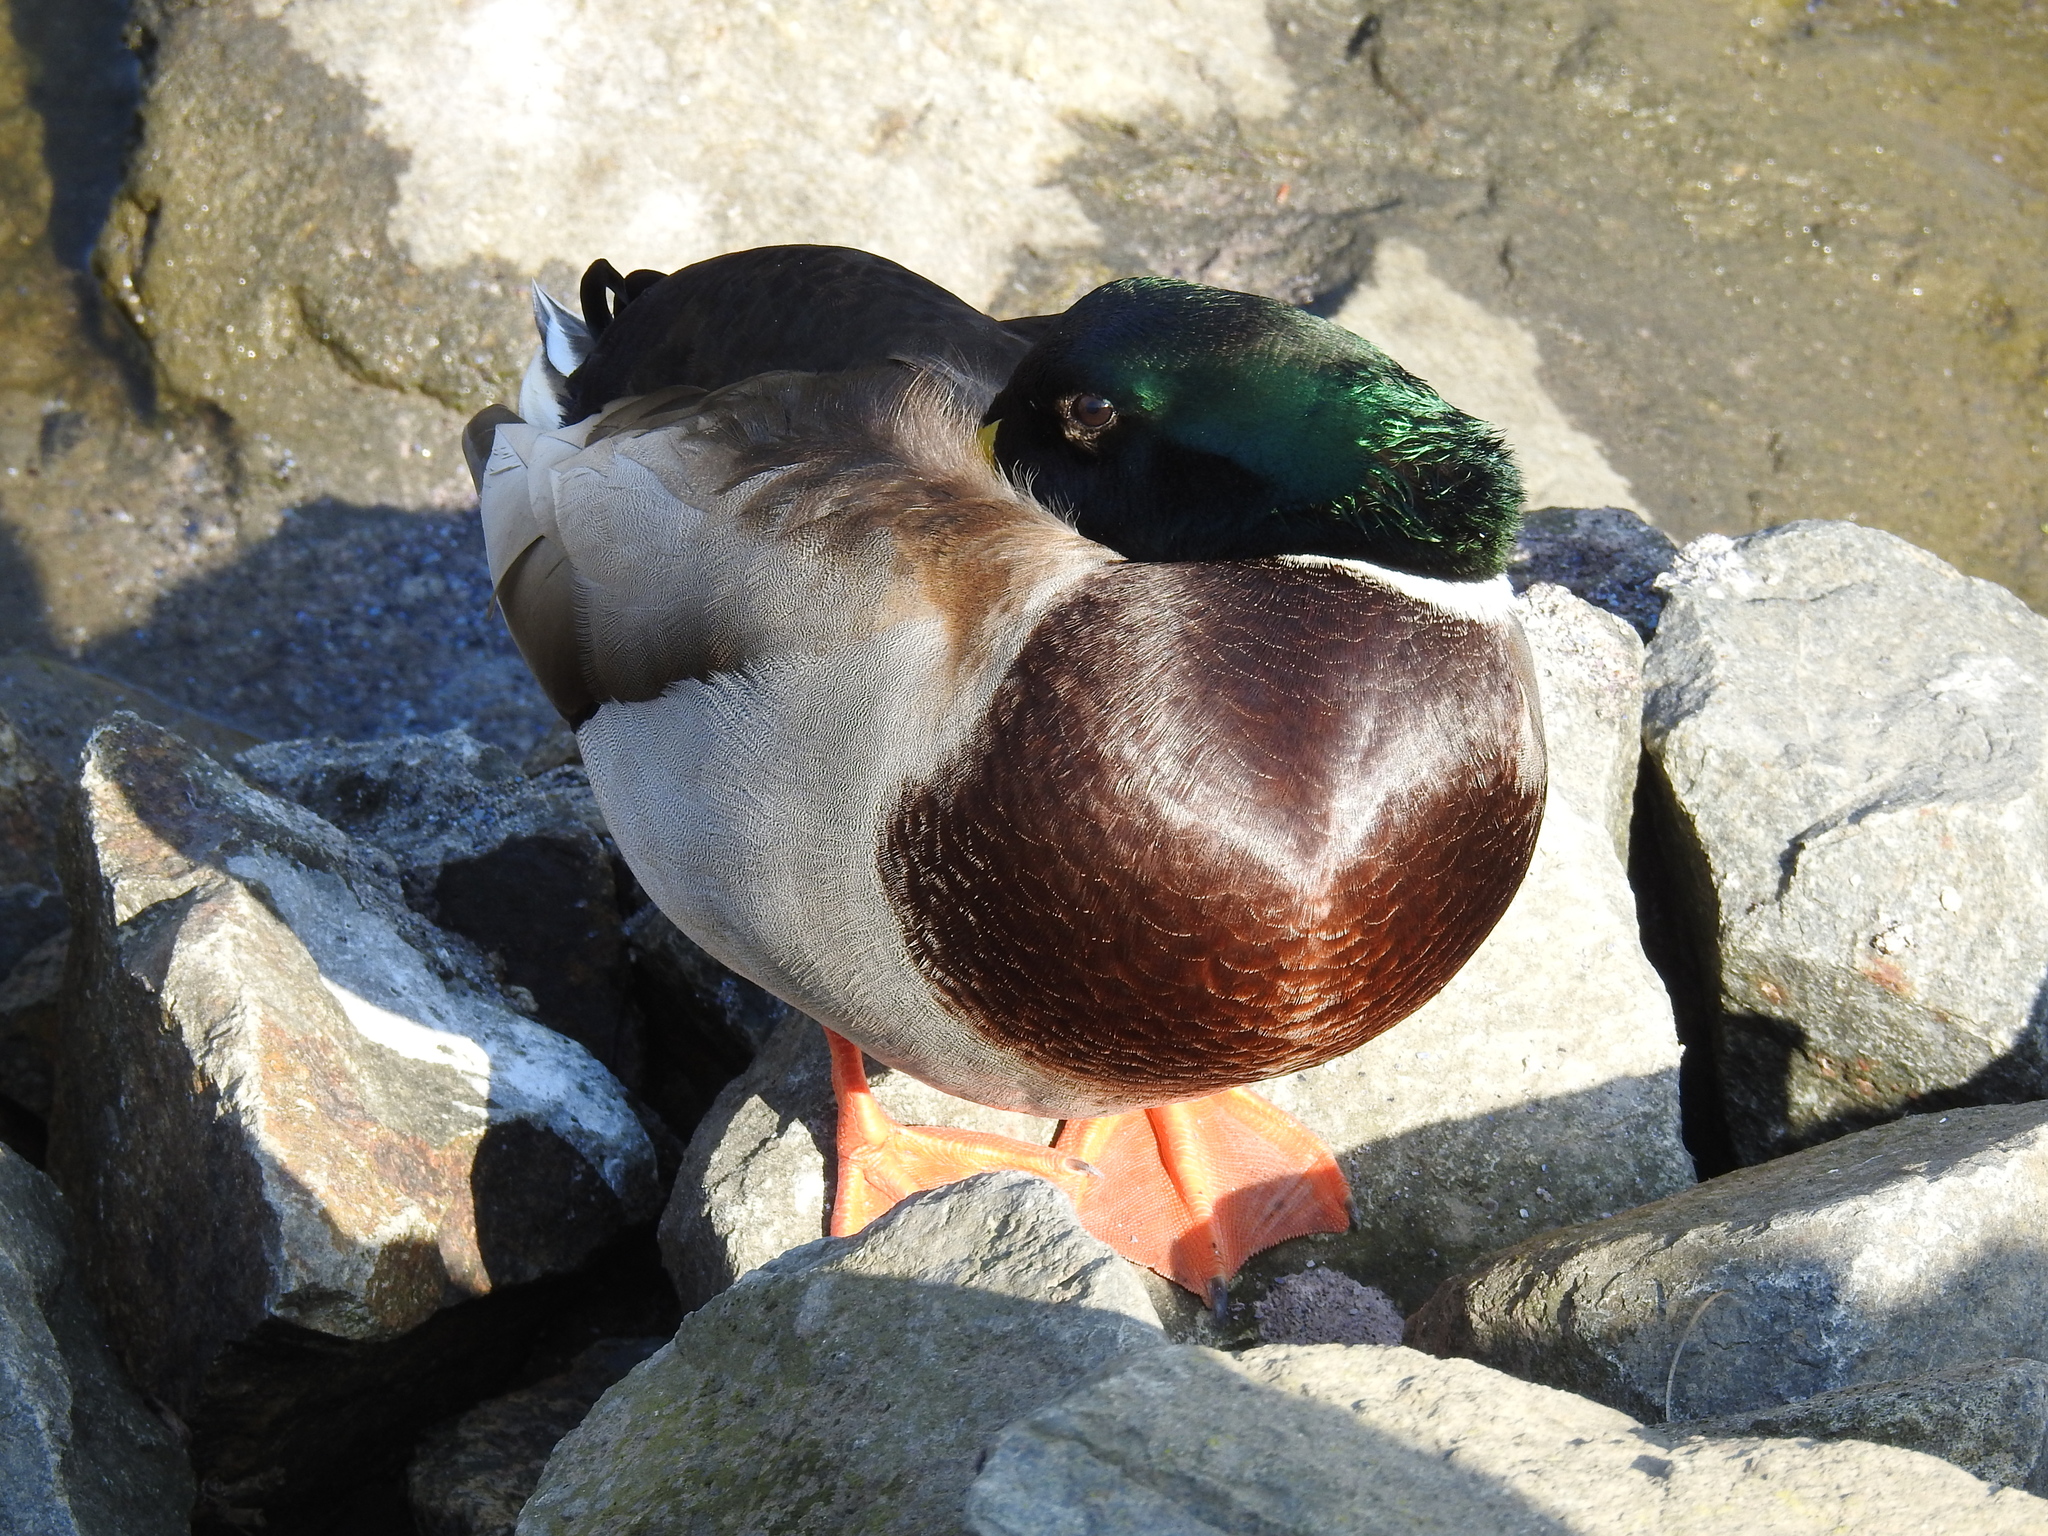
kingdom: Animalia
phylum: Chordata
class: Aves
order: Anseriformes
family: Anatidae
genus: Anas
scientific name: Anas platyrhynchos
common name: Mallard
